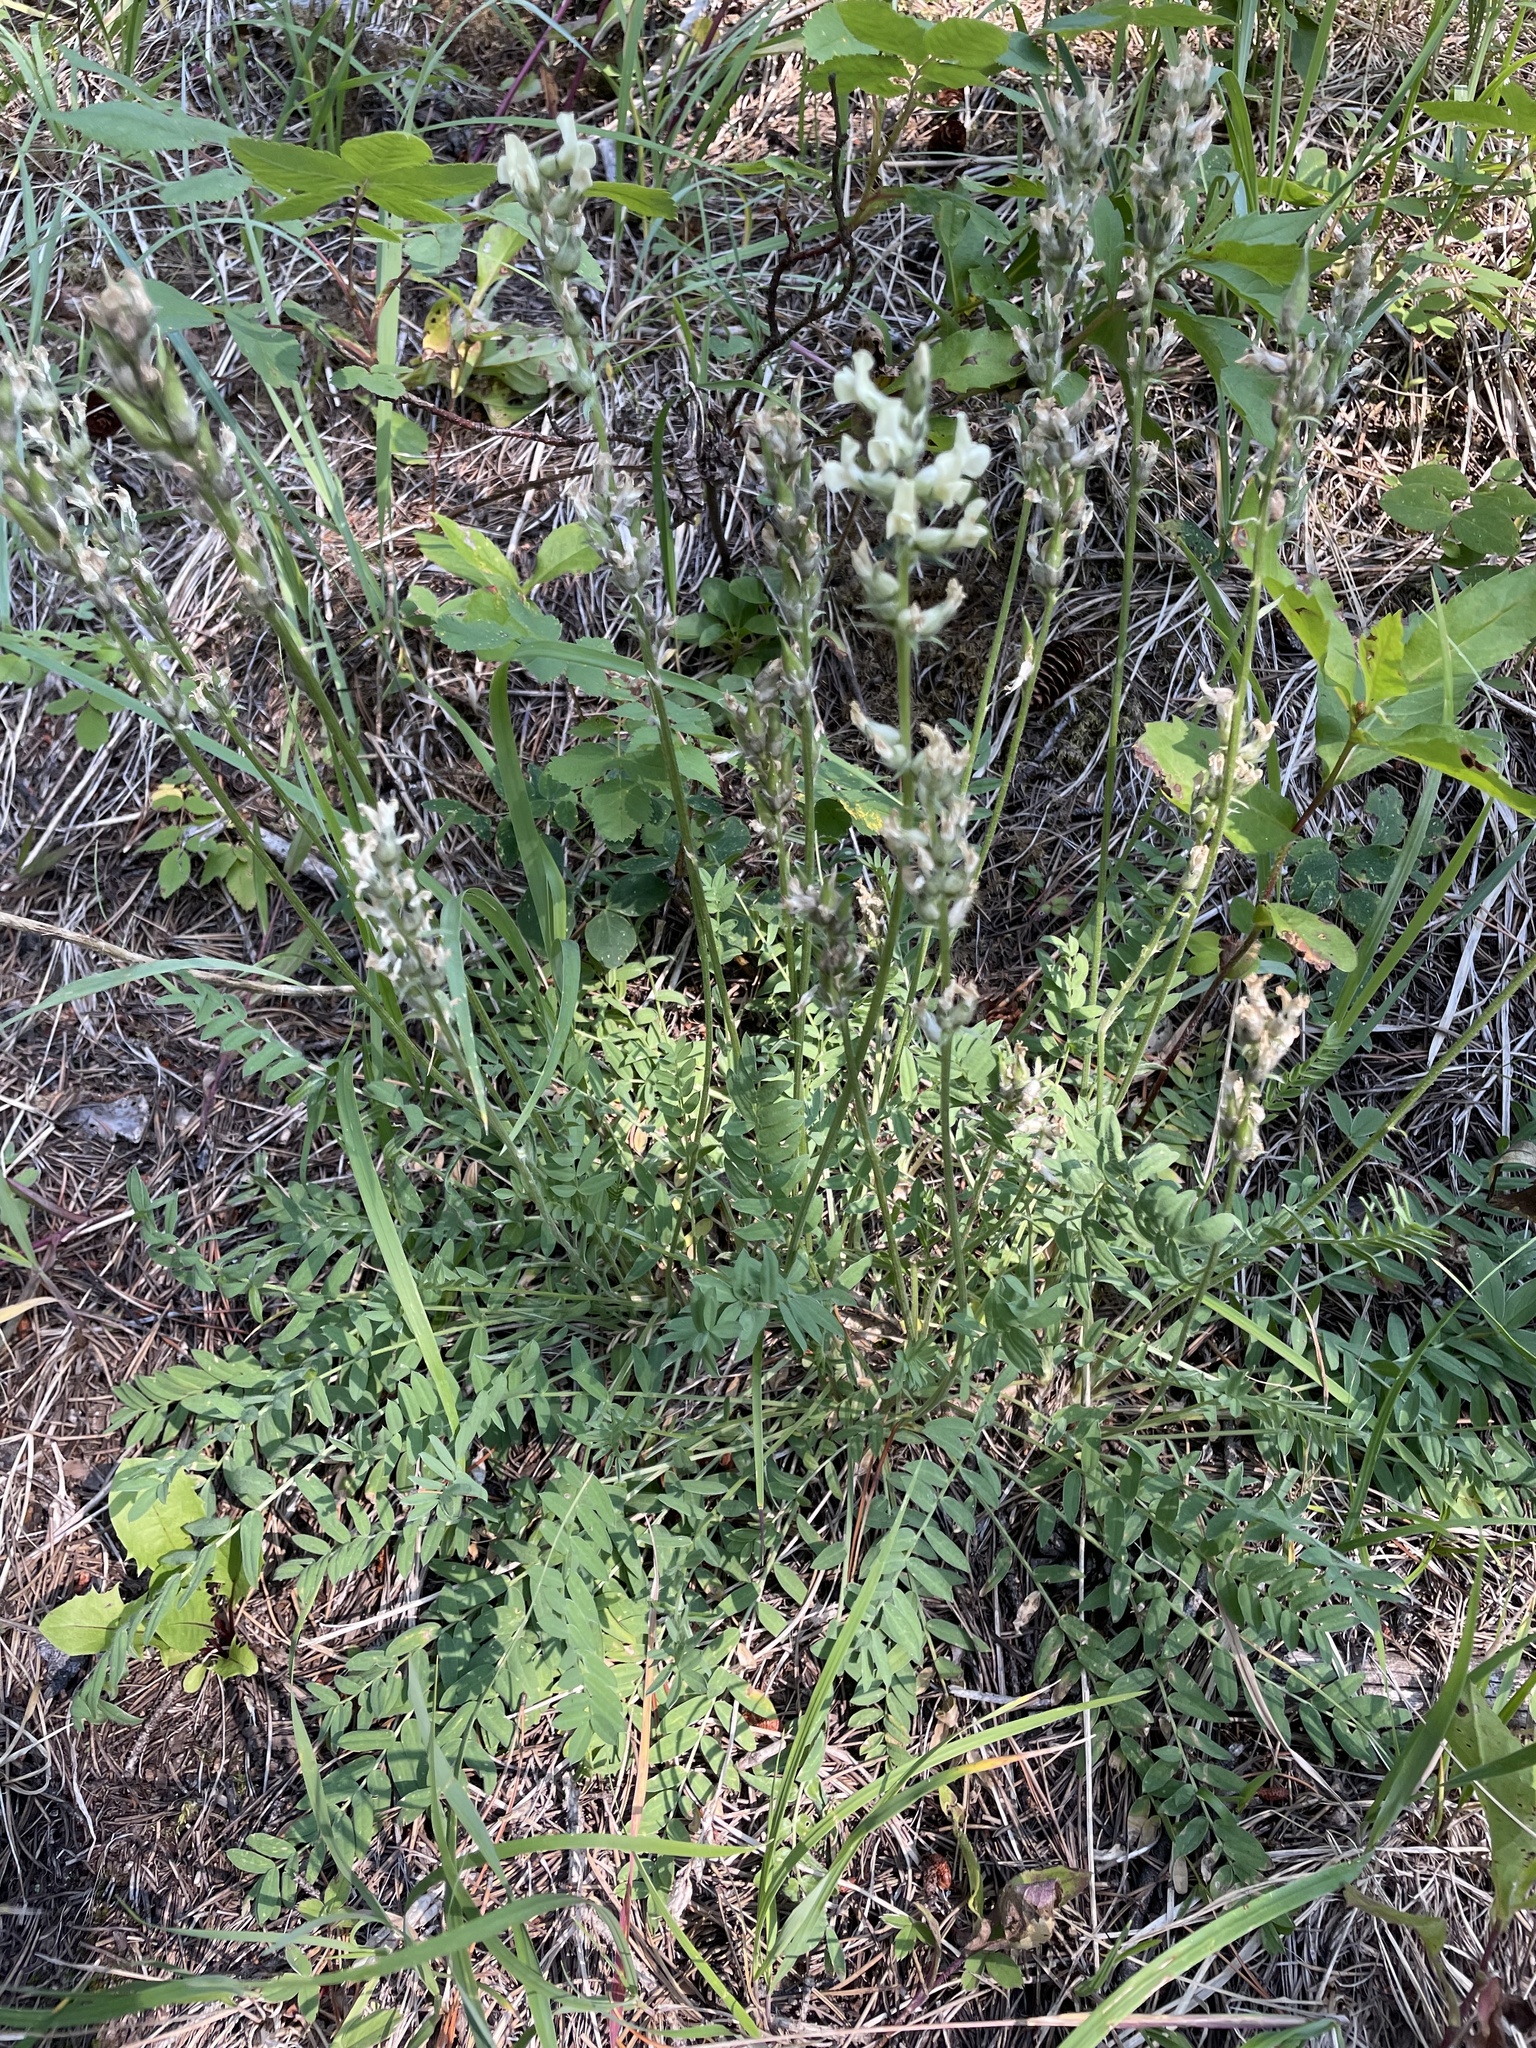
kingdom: Plantae
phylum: Tracheophyta
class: Magnoliopsida
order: Fabales
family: Fabaceae
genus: Oxytropis
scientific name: Oxytropis campestris
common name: Field locoweed
